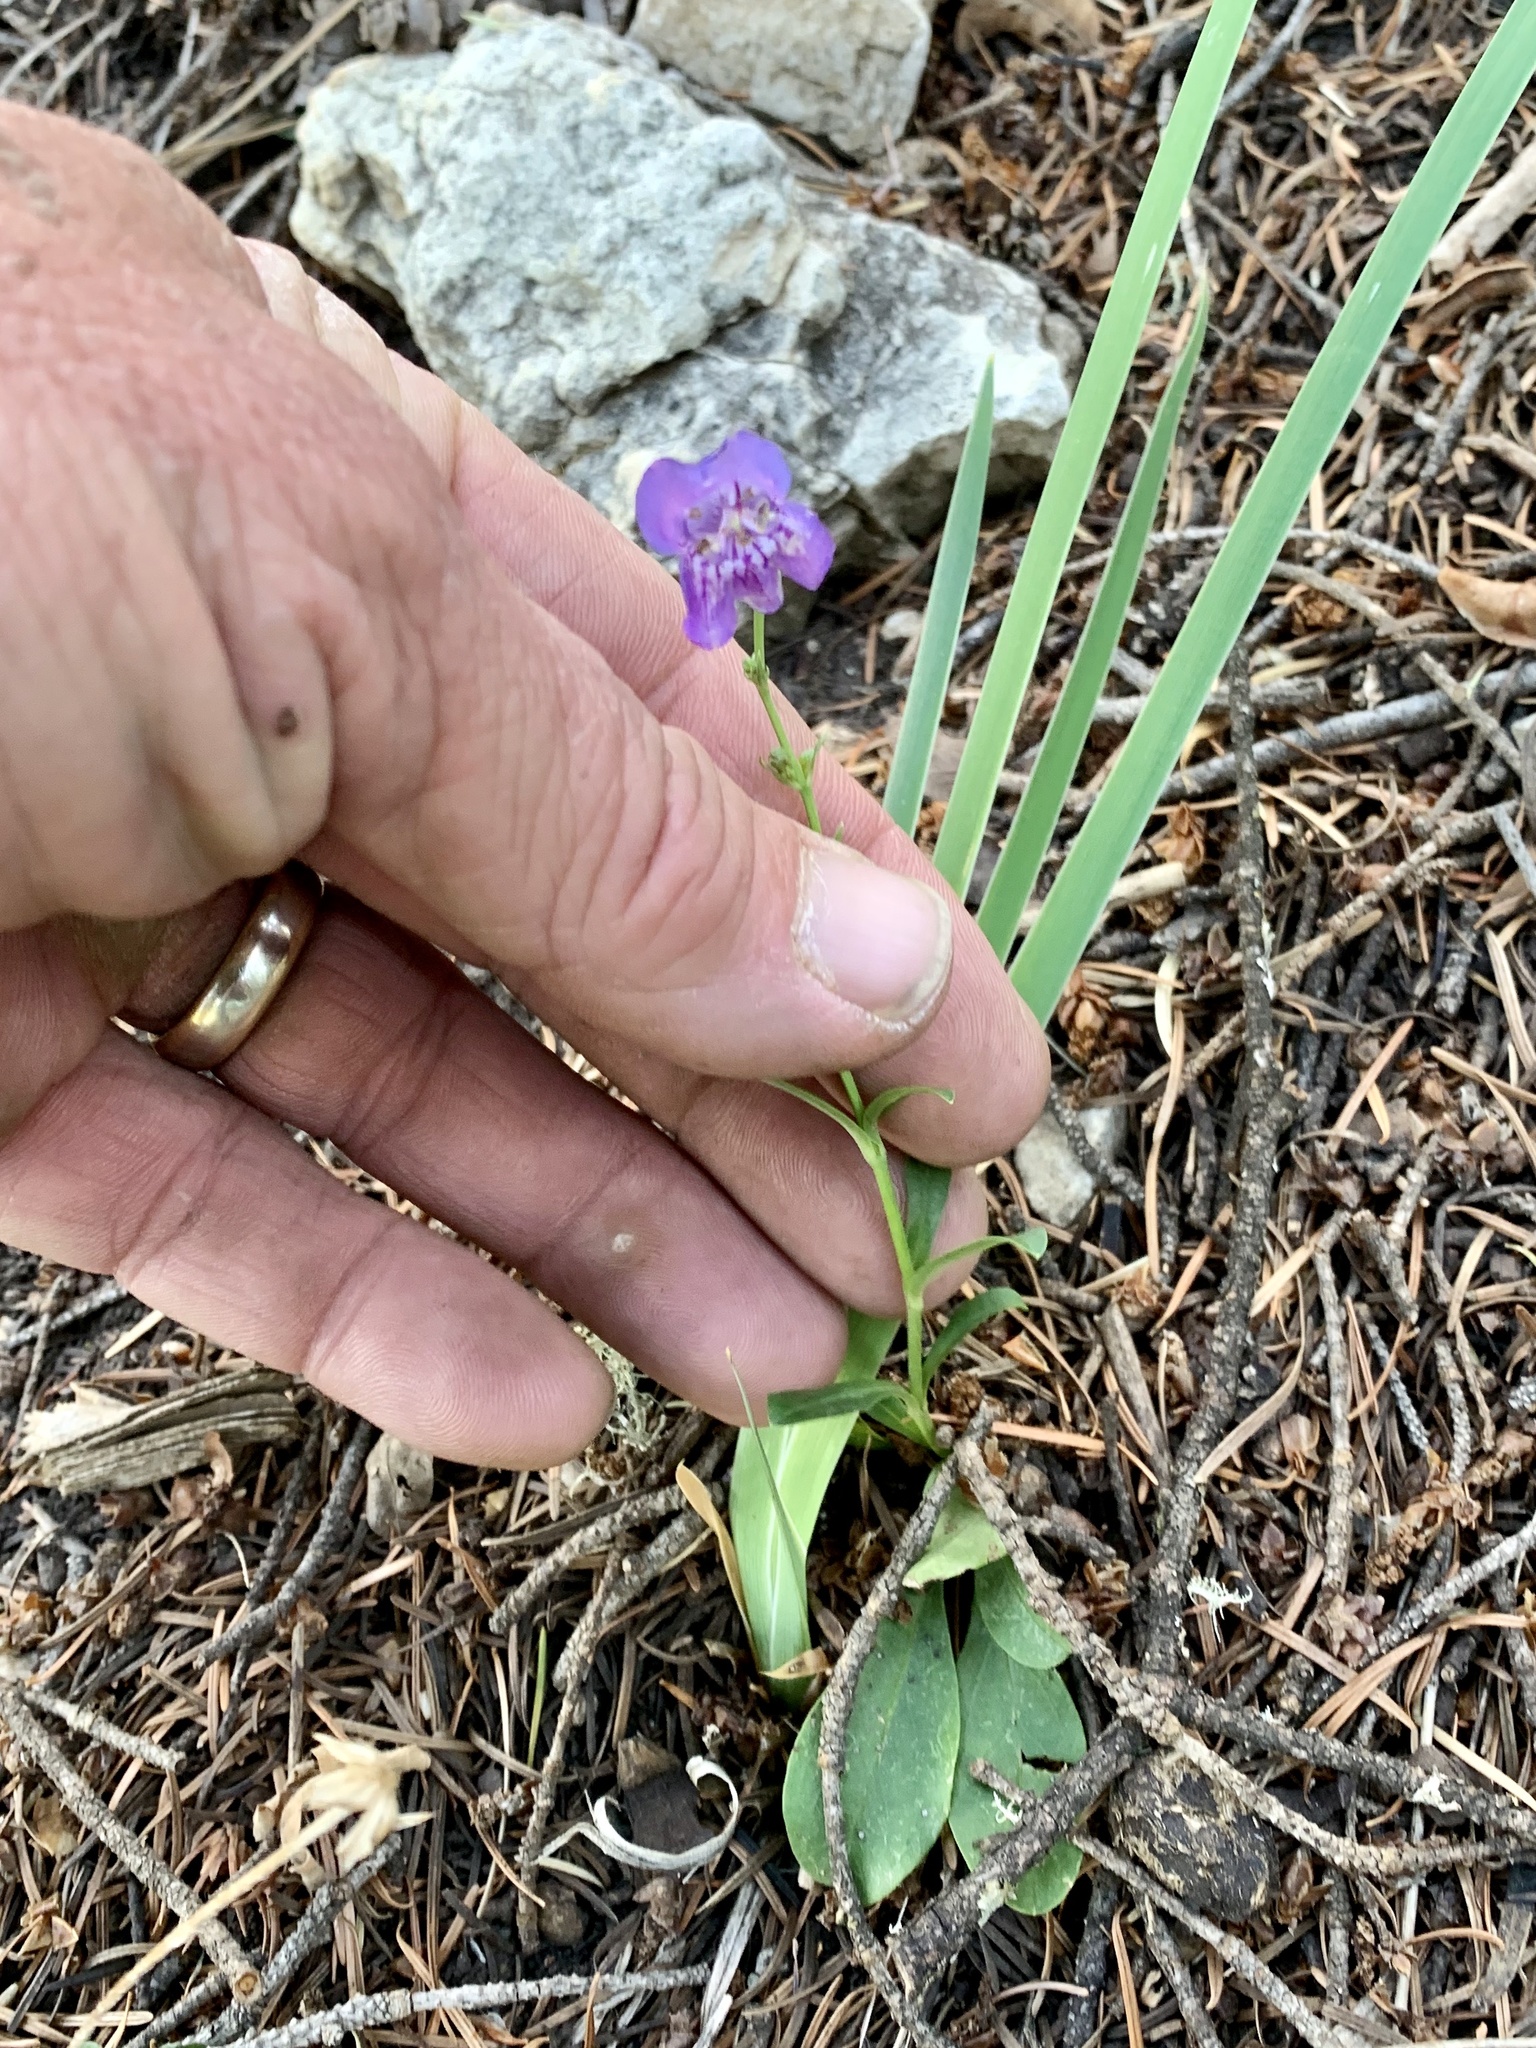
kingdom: Plantae
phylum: Tracheophyta
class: Magnoliopsida
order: Lamiales
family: Plantaginaceae
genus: Penstemon
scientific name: Penstemon neomexicanus
